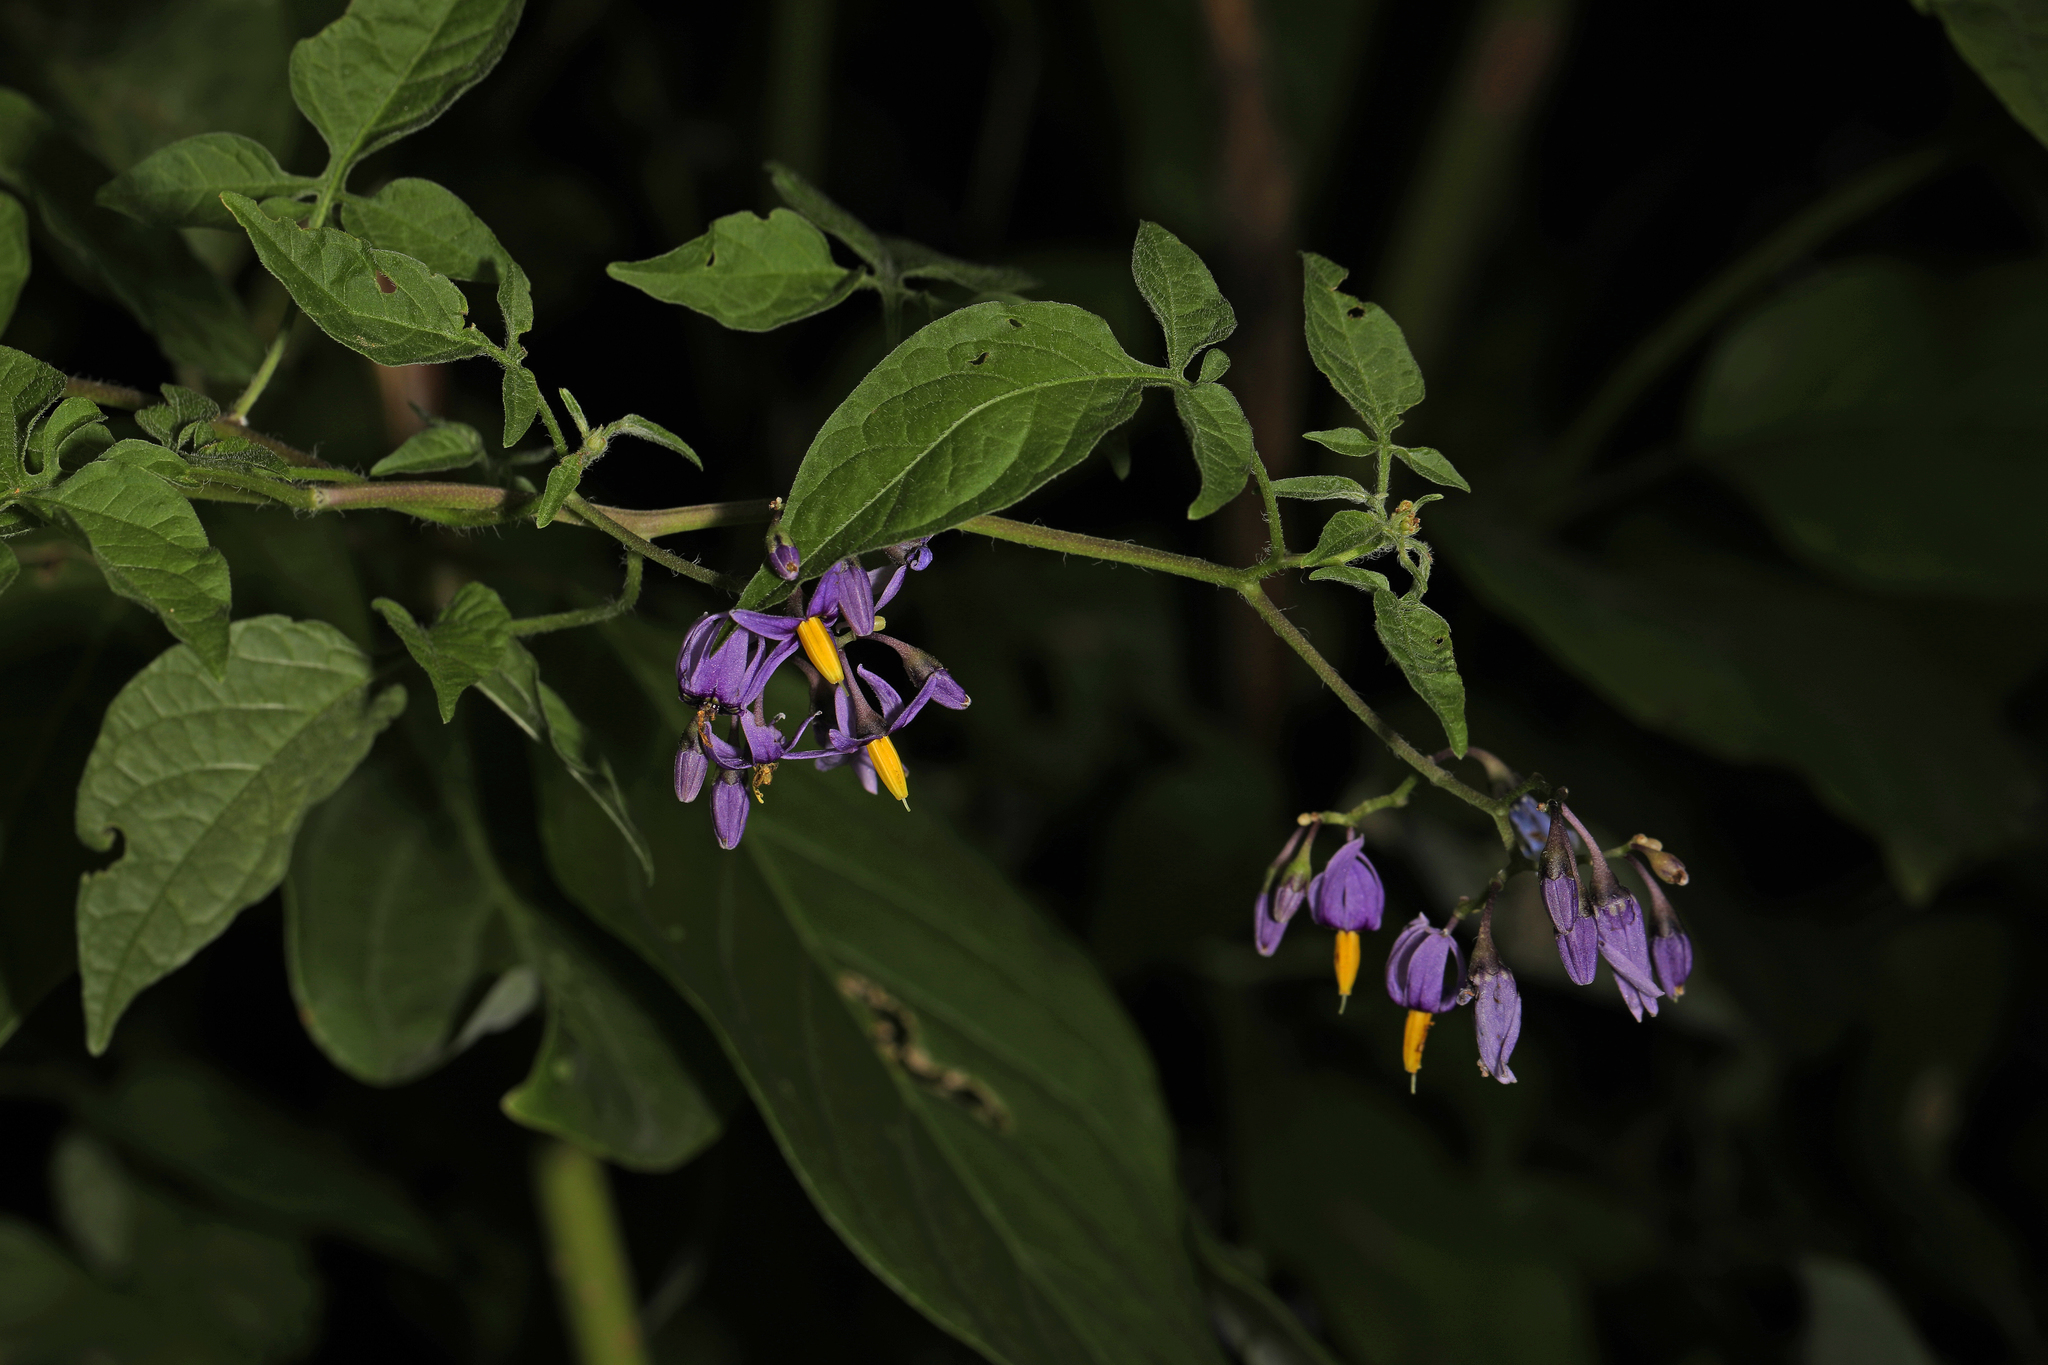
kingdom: Plantae
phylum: Tracheophyta
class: Magnoliopsida
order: Solanales
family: Solanaceae
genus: Solanum
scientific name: Solanum dulcamara
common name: Climbing nightshade
